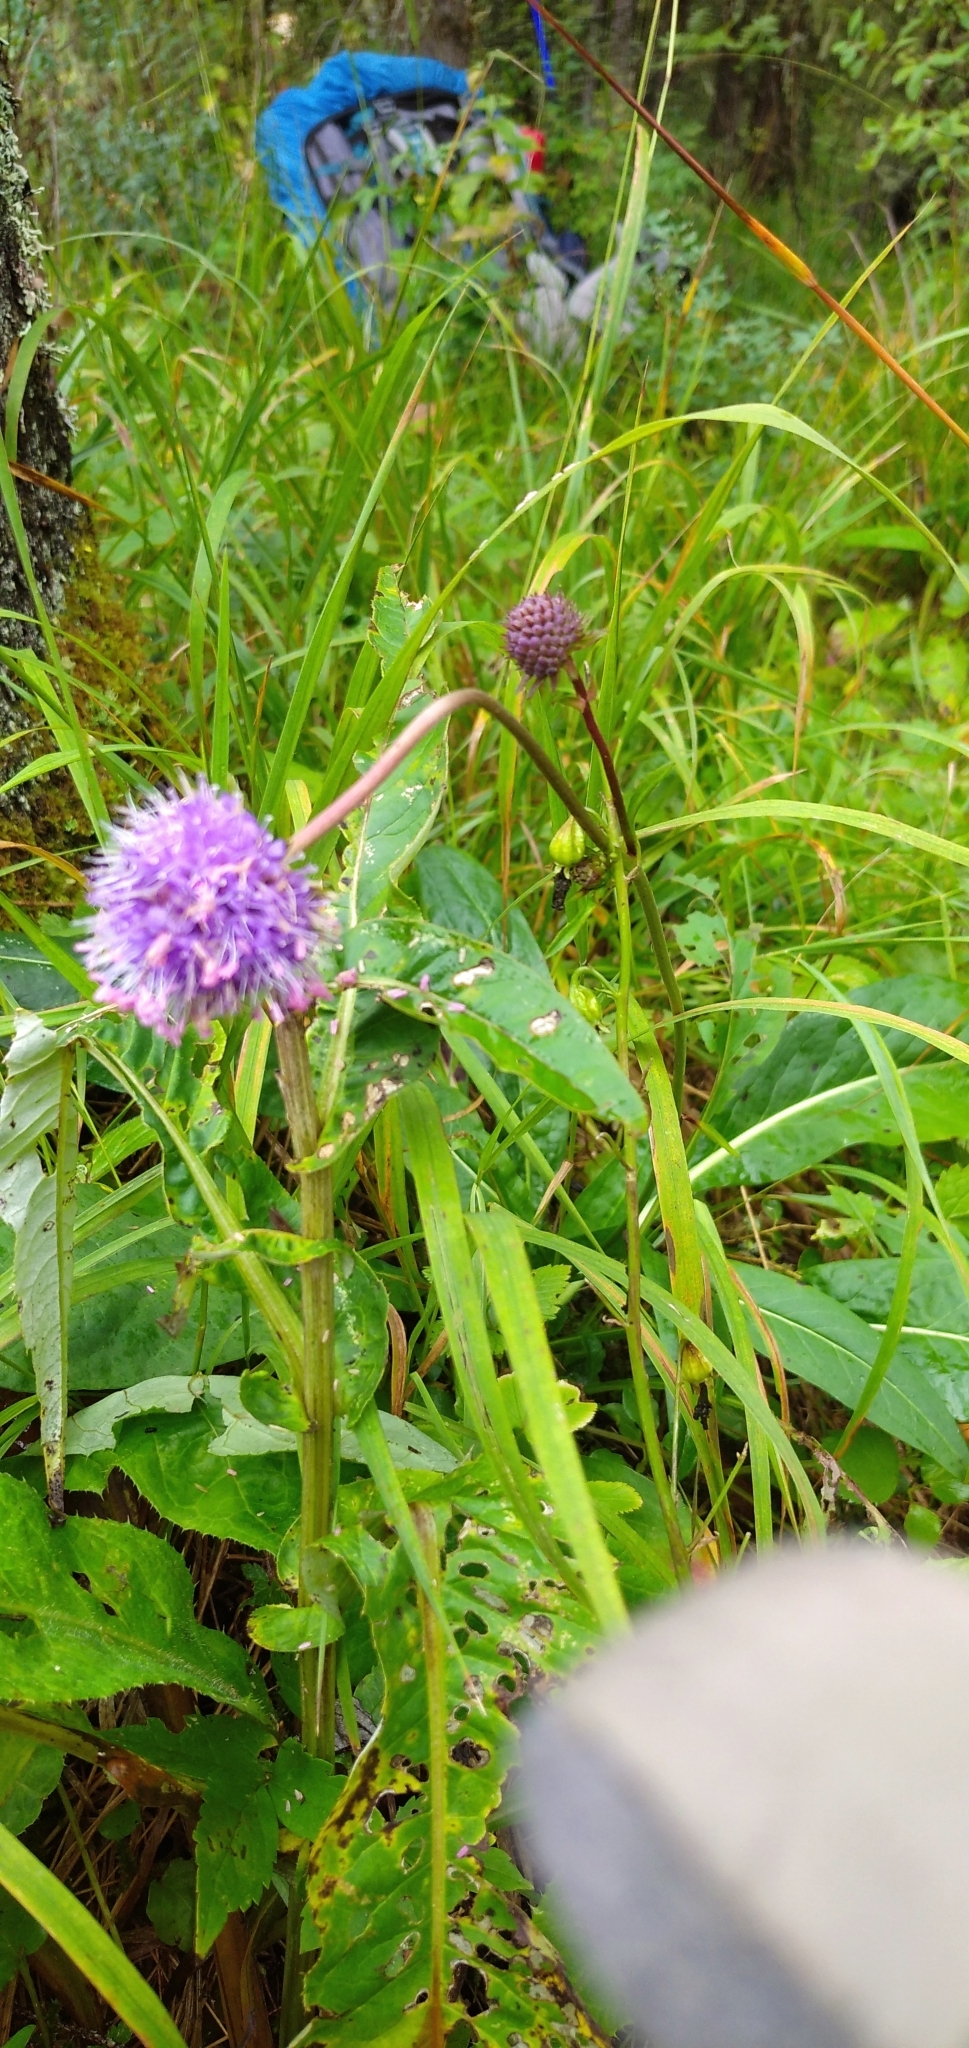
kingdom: Plantae
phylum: Tracheophyta
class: Magnoliopsida
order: Dipsacales
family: Caprifoliaceae
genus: Succisa
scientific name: Succisa pratensis
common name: Devil's-bit
